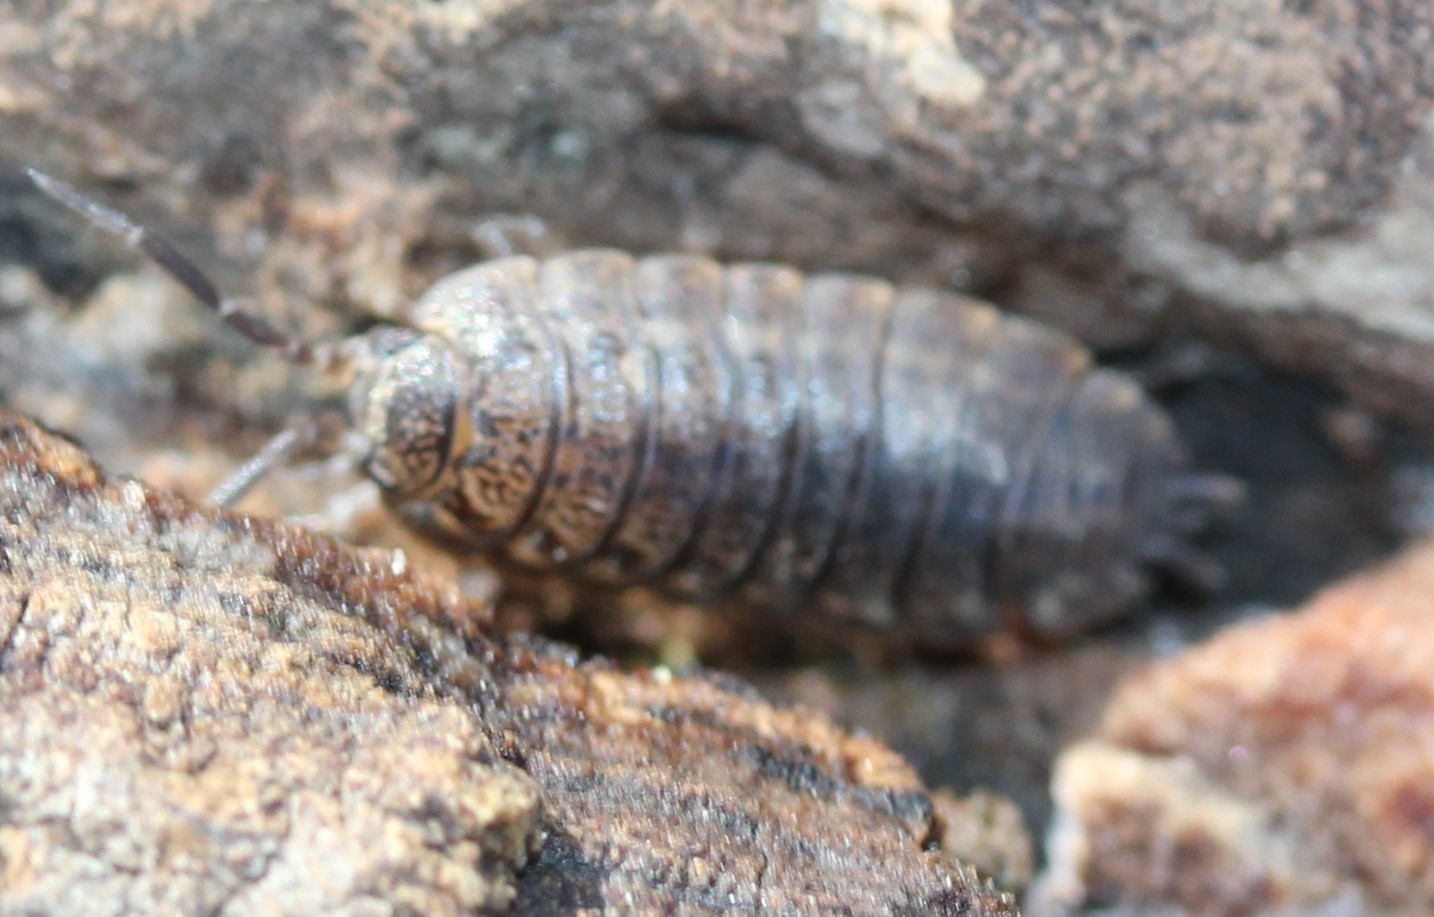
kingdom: Animalia
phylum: Arthropoda
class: Malacostraca
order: Isopoda
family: Trachelipodidae
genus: Trachelipus
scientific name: Trachelipus rathkii
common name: Isopod
